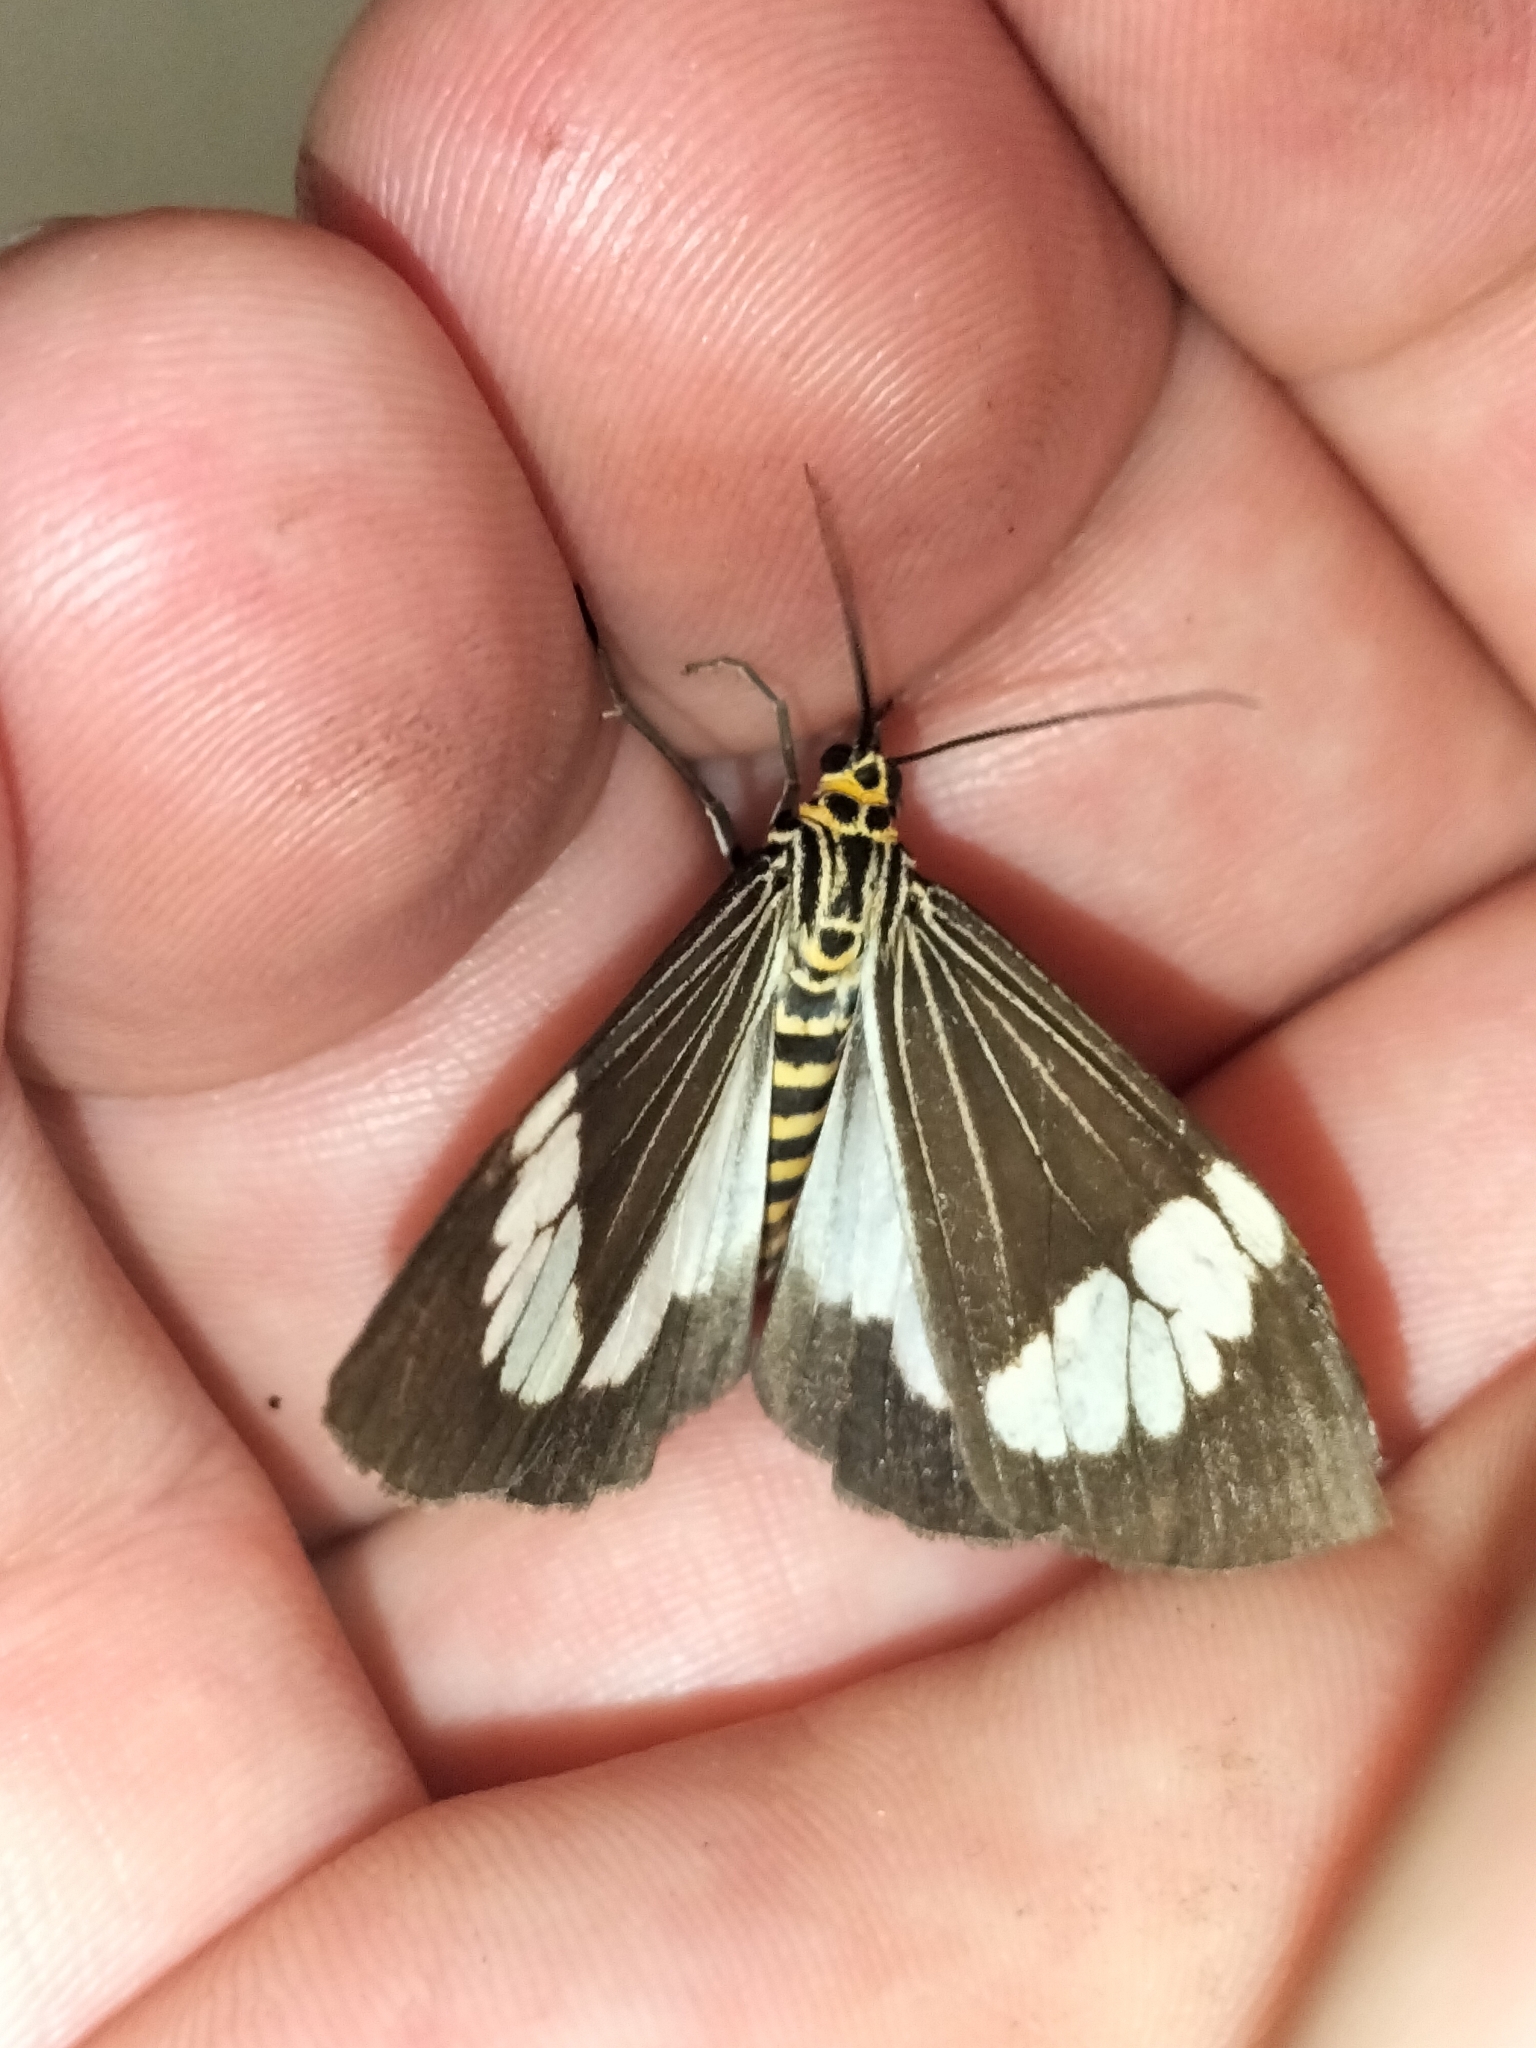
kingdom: Animalia
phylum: Arthropoda
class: Insecta
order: Lepidoptera
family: Erebidae
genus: Nyctemera
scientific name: Nyctemera baulus
